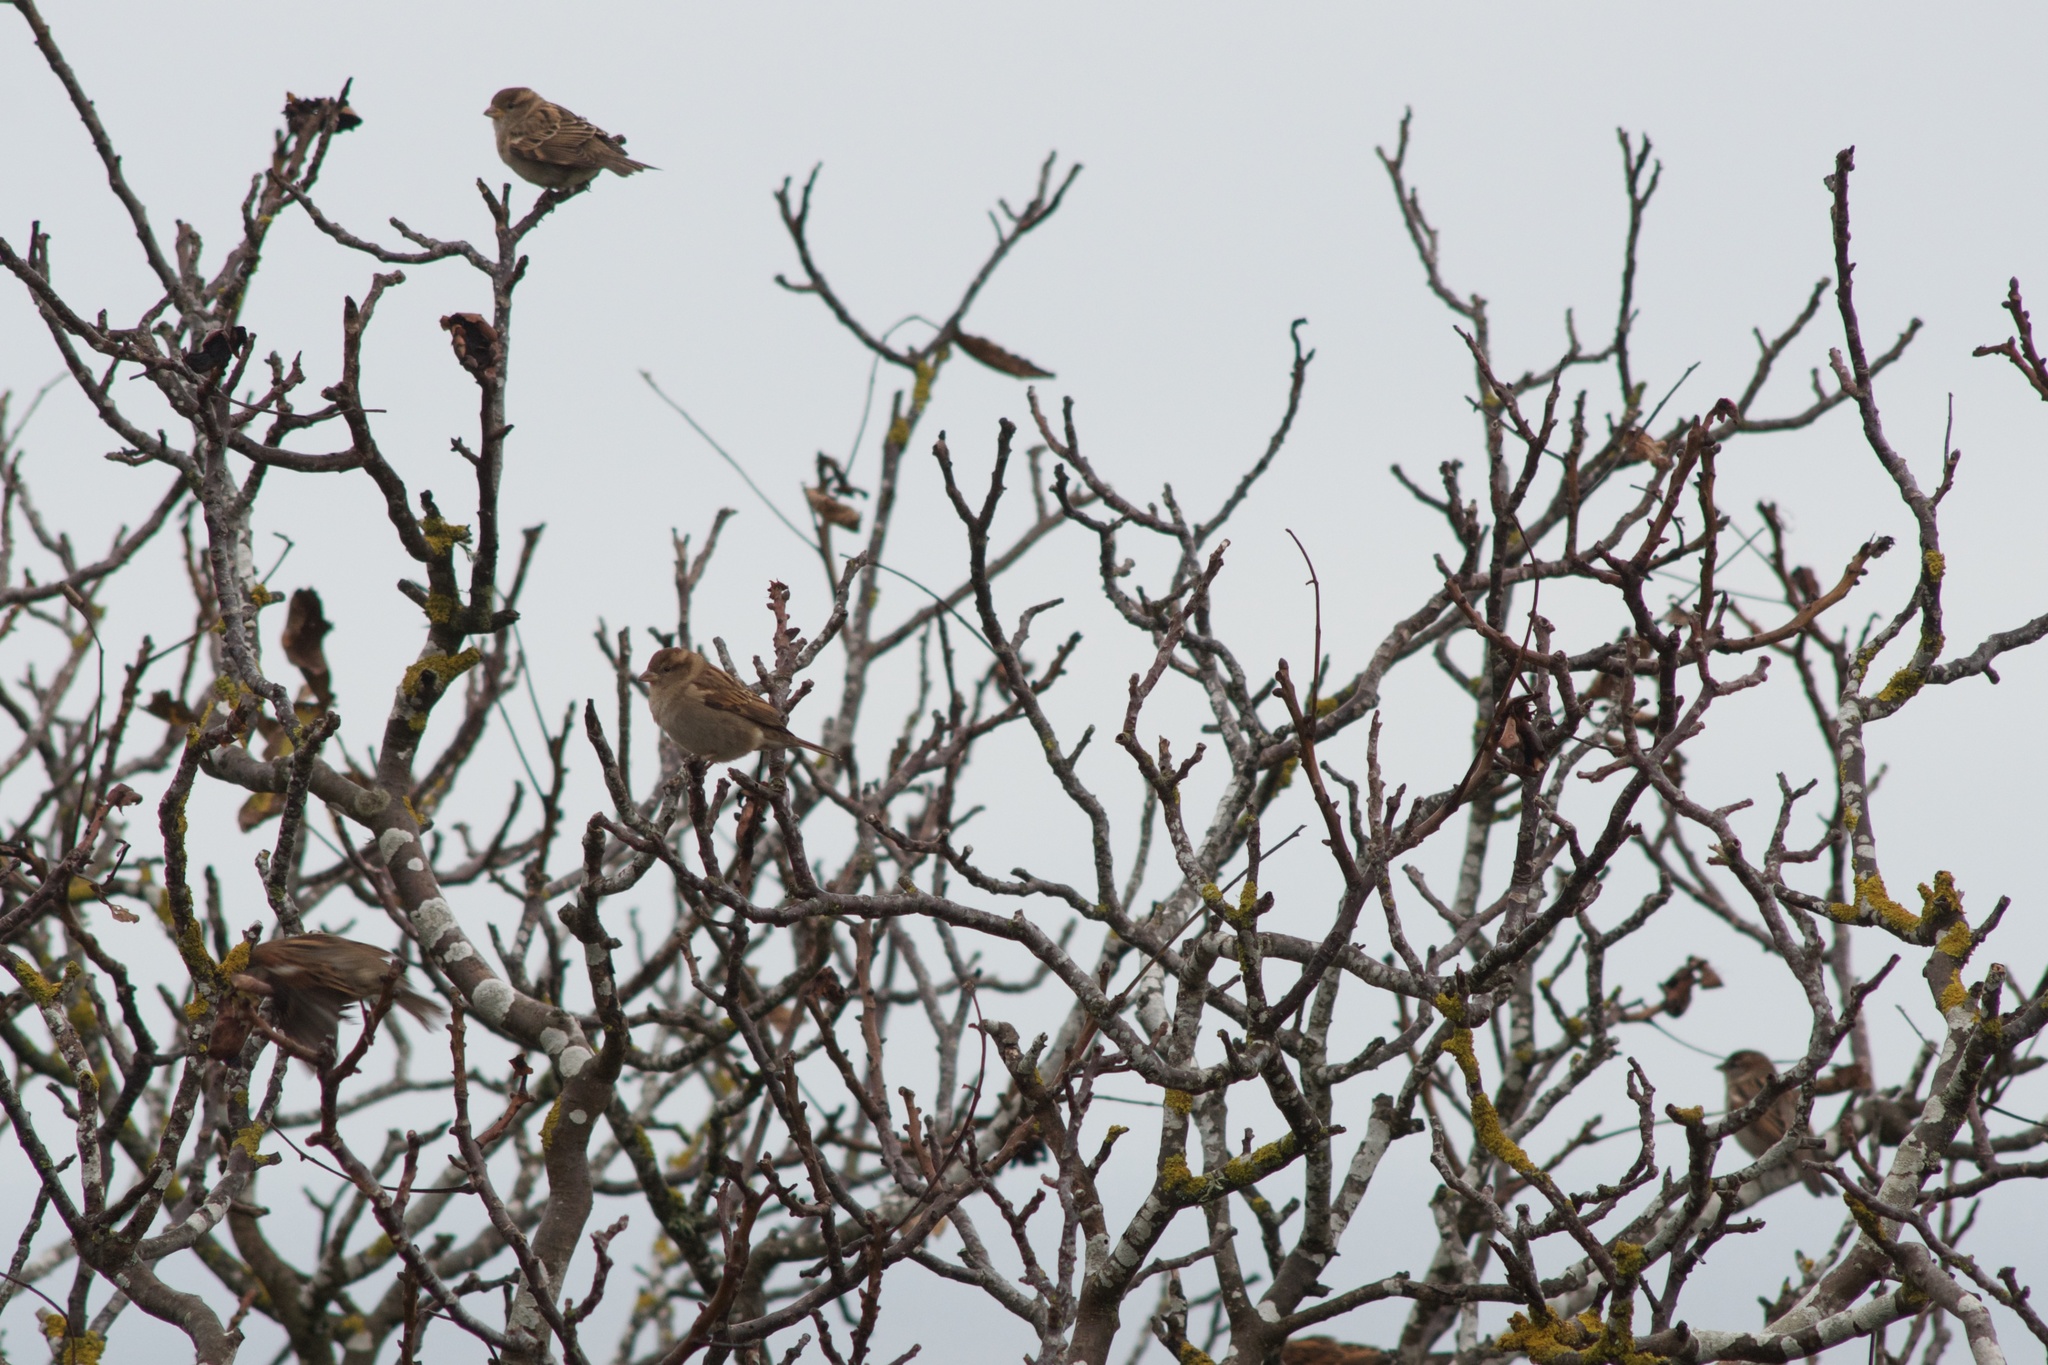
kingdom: Animalia
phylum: Chordata
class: Aves
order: Passeriformes
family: Passeridae
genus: Passer
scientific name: Passer domesticus
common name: House sparrow
